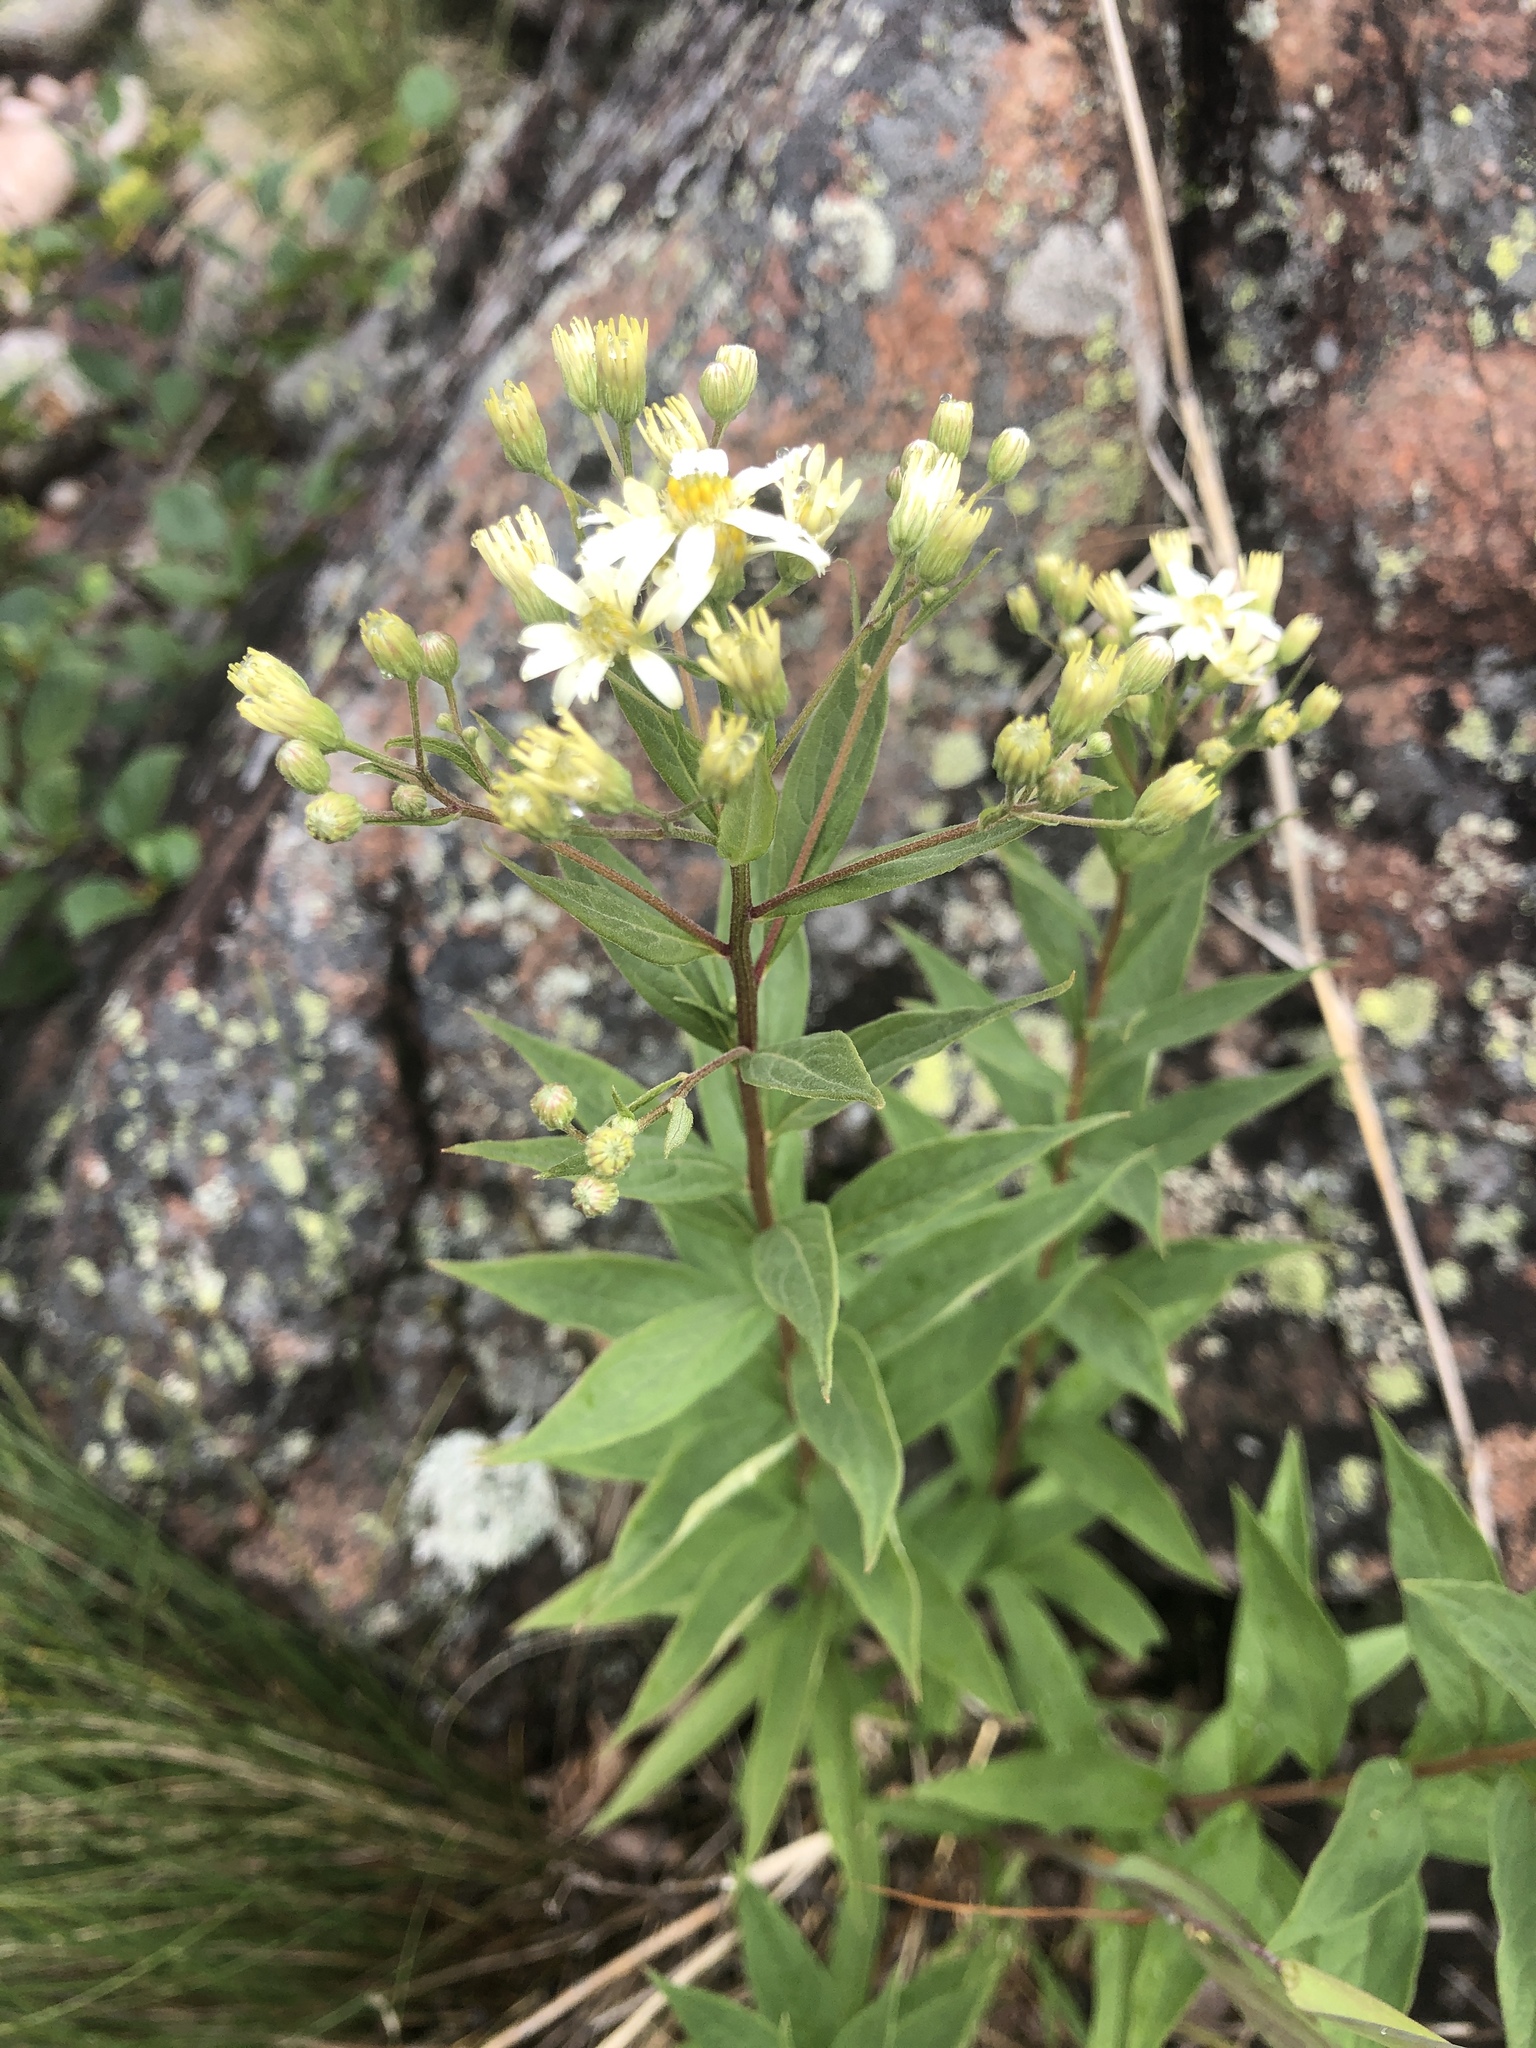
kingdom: Plantae
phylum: Tracheophyta
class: Magnoliopsida
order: Asterales
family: Asteraceae
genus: Doellingeria
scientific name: Doellingeria umbellata
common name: Flat-top white aster
